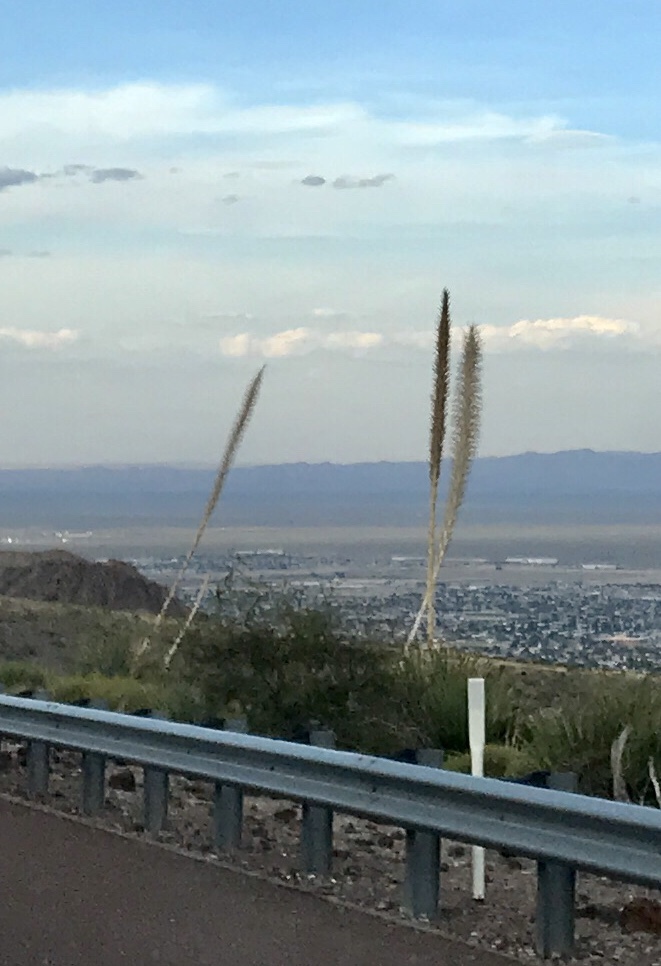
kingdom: Plantae
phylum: Tracheophyta
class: Liliopsida
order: Asparagales
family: Asparagaceae
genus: Dasylirion
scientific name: Dasylirion wheeleri
